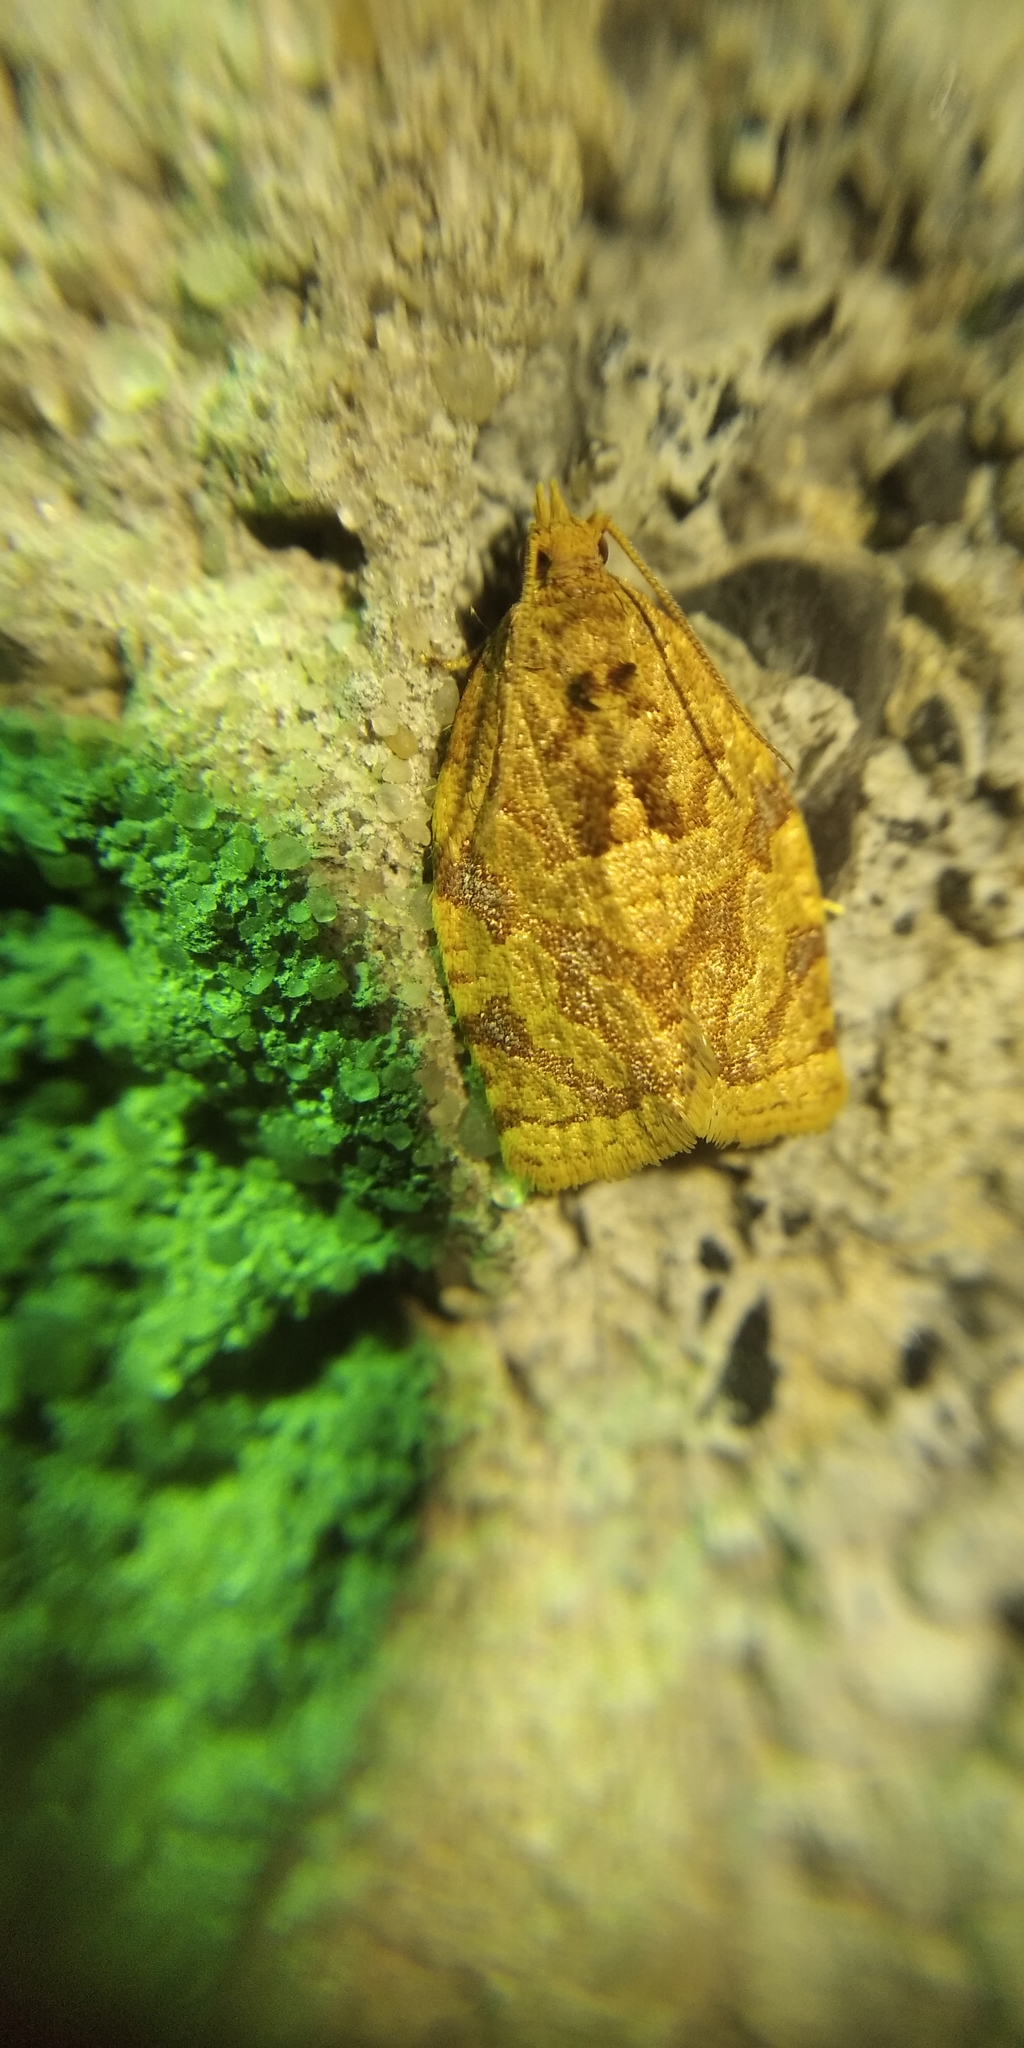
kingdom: Animalia
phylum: Arthropoda
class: Insecta
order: Lepidoptera
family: Tortricidae
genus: Adoxophyes
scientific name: Adoxophyes orana
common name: Summer fruit tortrix
